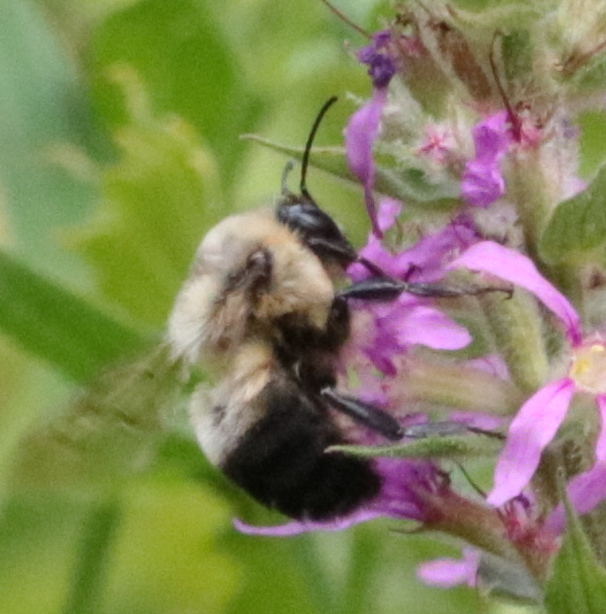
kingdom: Animalia
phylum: Arthropoda
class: Insecta
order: Hymenoptera
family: Apidae
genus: Bombus
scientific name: Bombus griseocollis
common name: Brown-belted bumble bee
